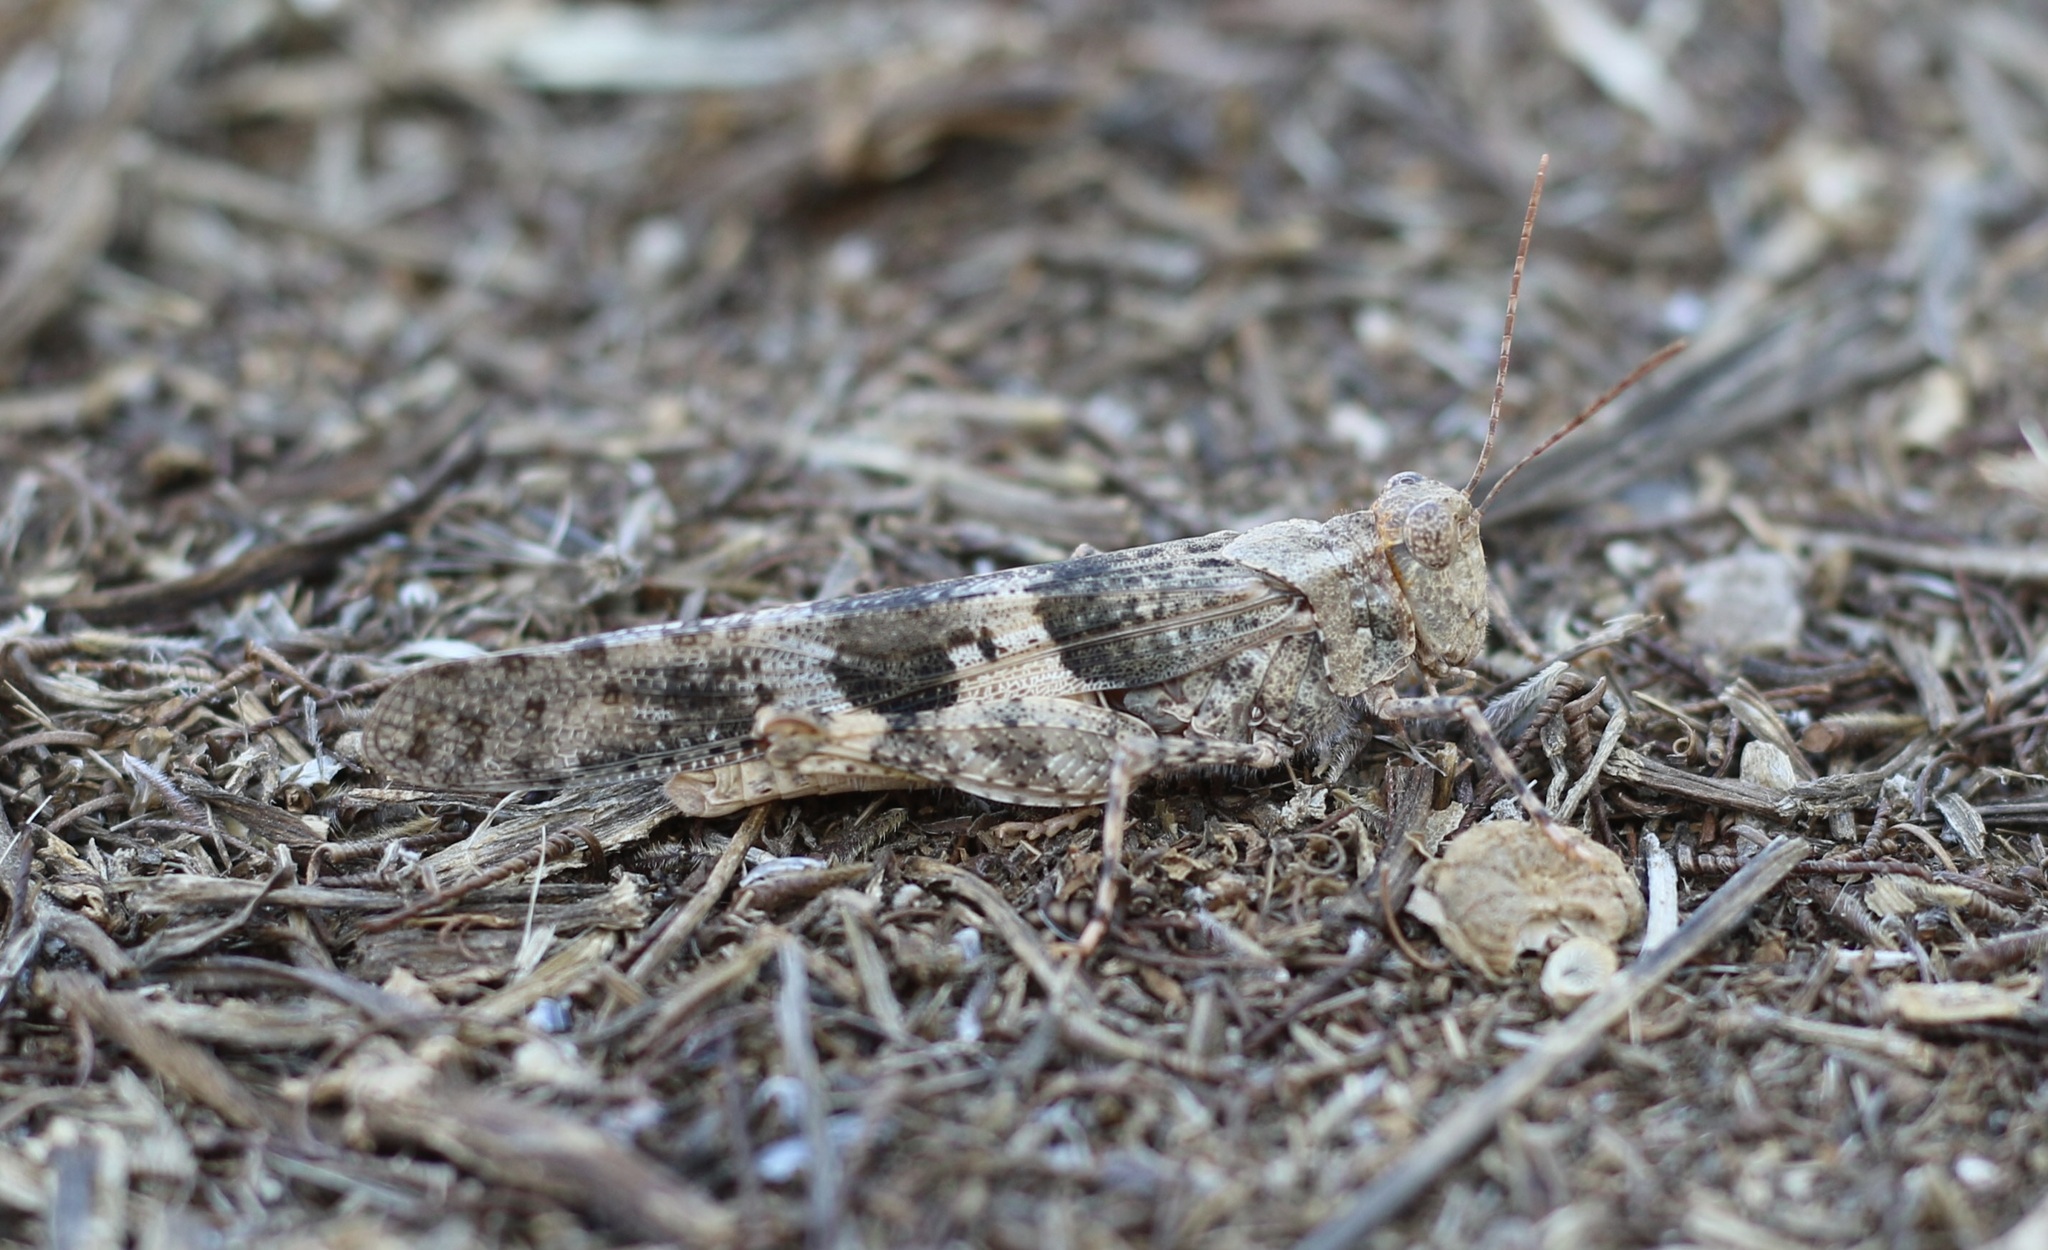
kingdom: Animalia
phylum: Arthropoda
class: Insecta
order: Orthoptera
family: Acrididae
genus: Trimerotropis
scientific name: Trimerotropis pallidipennis
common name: Pallid-winged grasshopper
